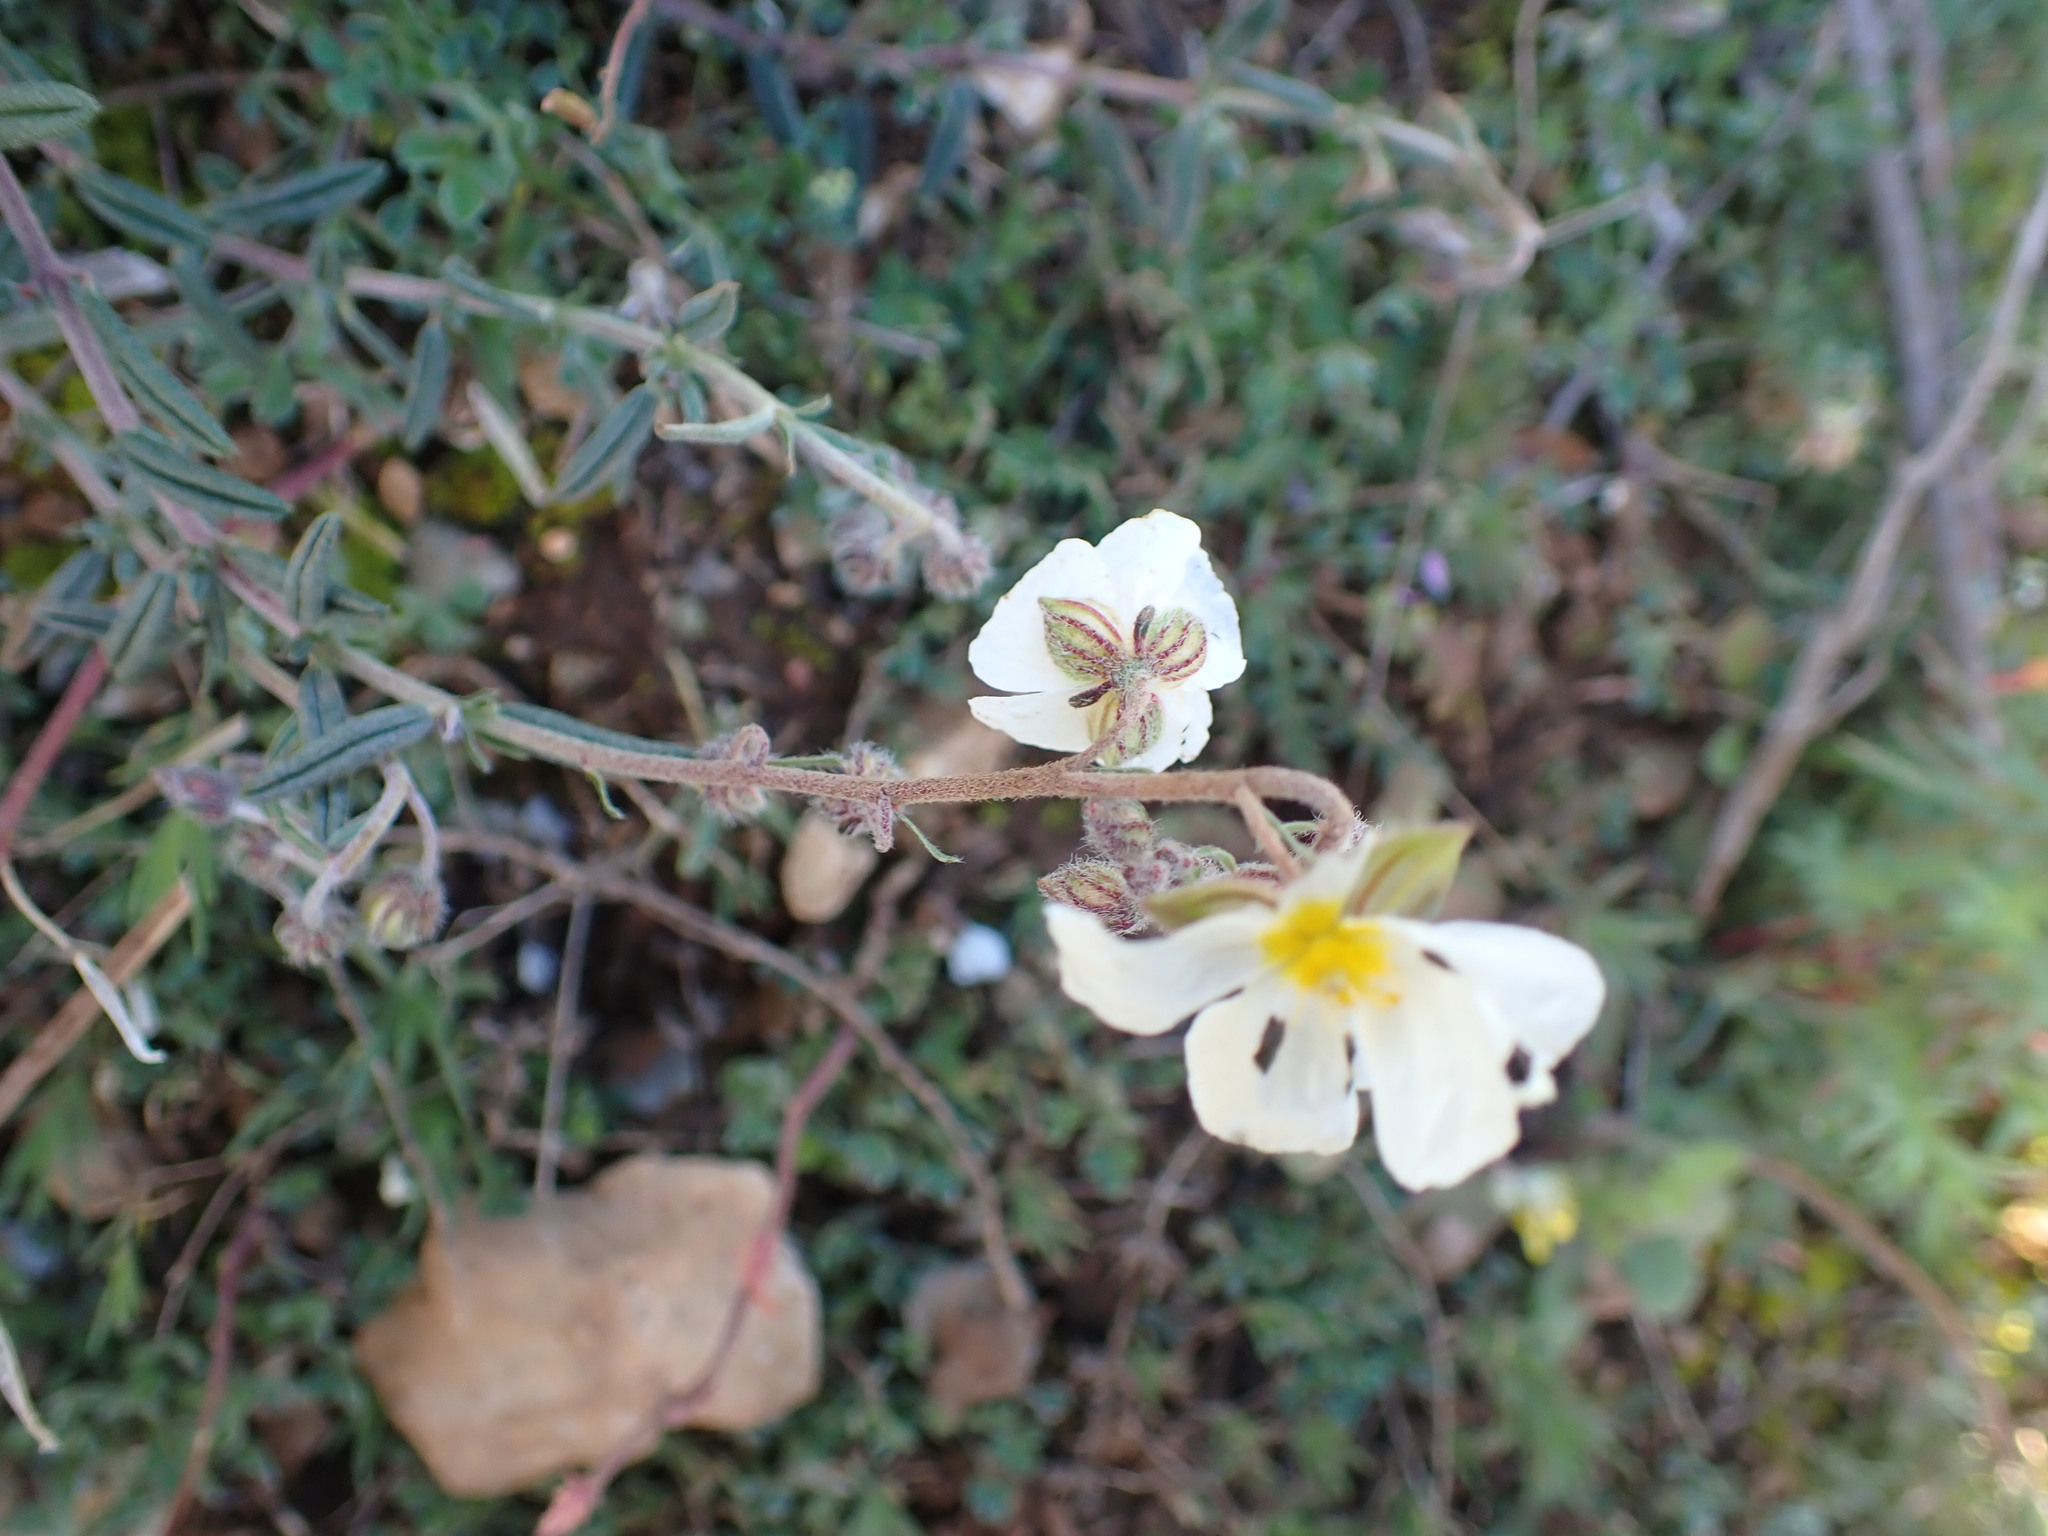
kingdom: Plantae
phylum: Tracheophyta
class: Magnoliopsida
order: Malvales
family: Cistaceae
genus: Helianthemum
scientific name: Helianthemum apenninum
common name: White rock-rose
